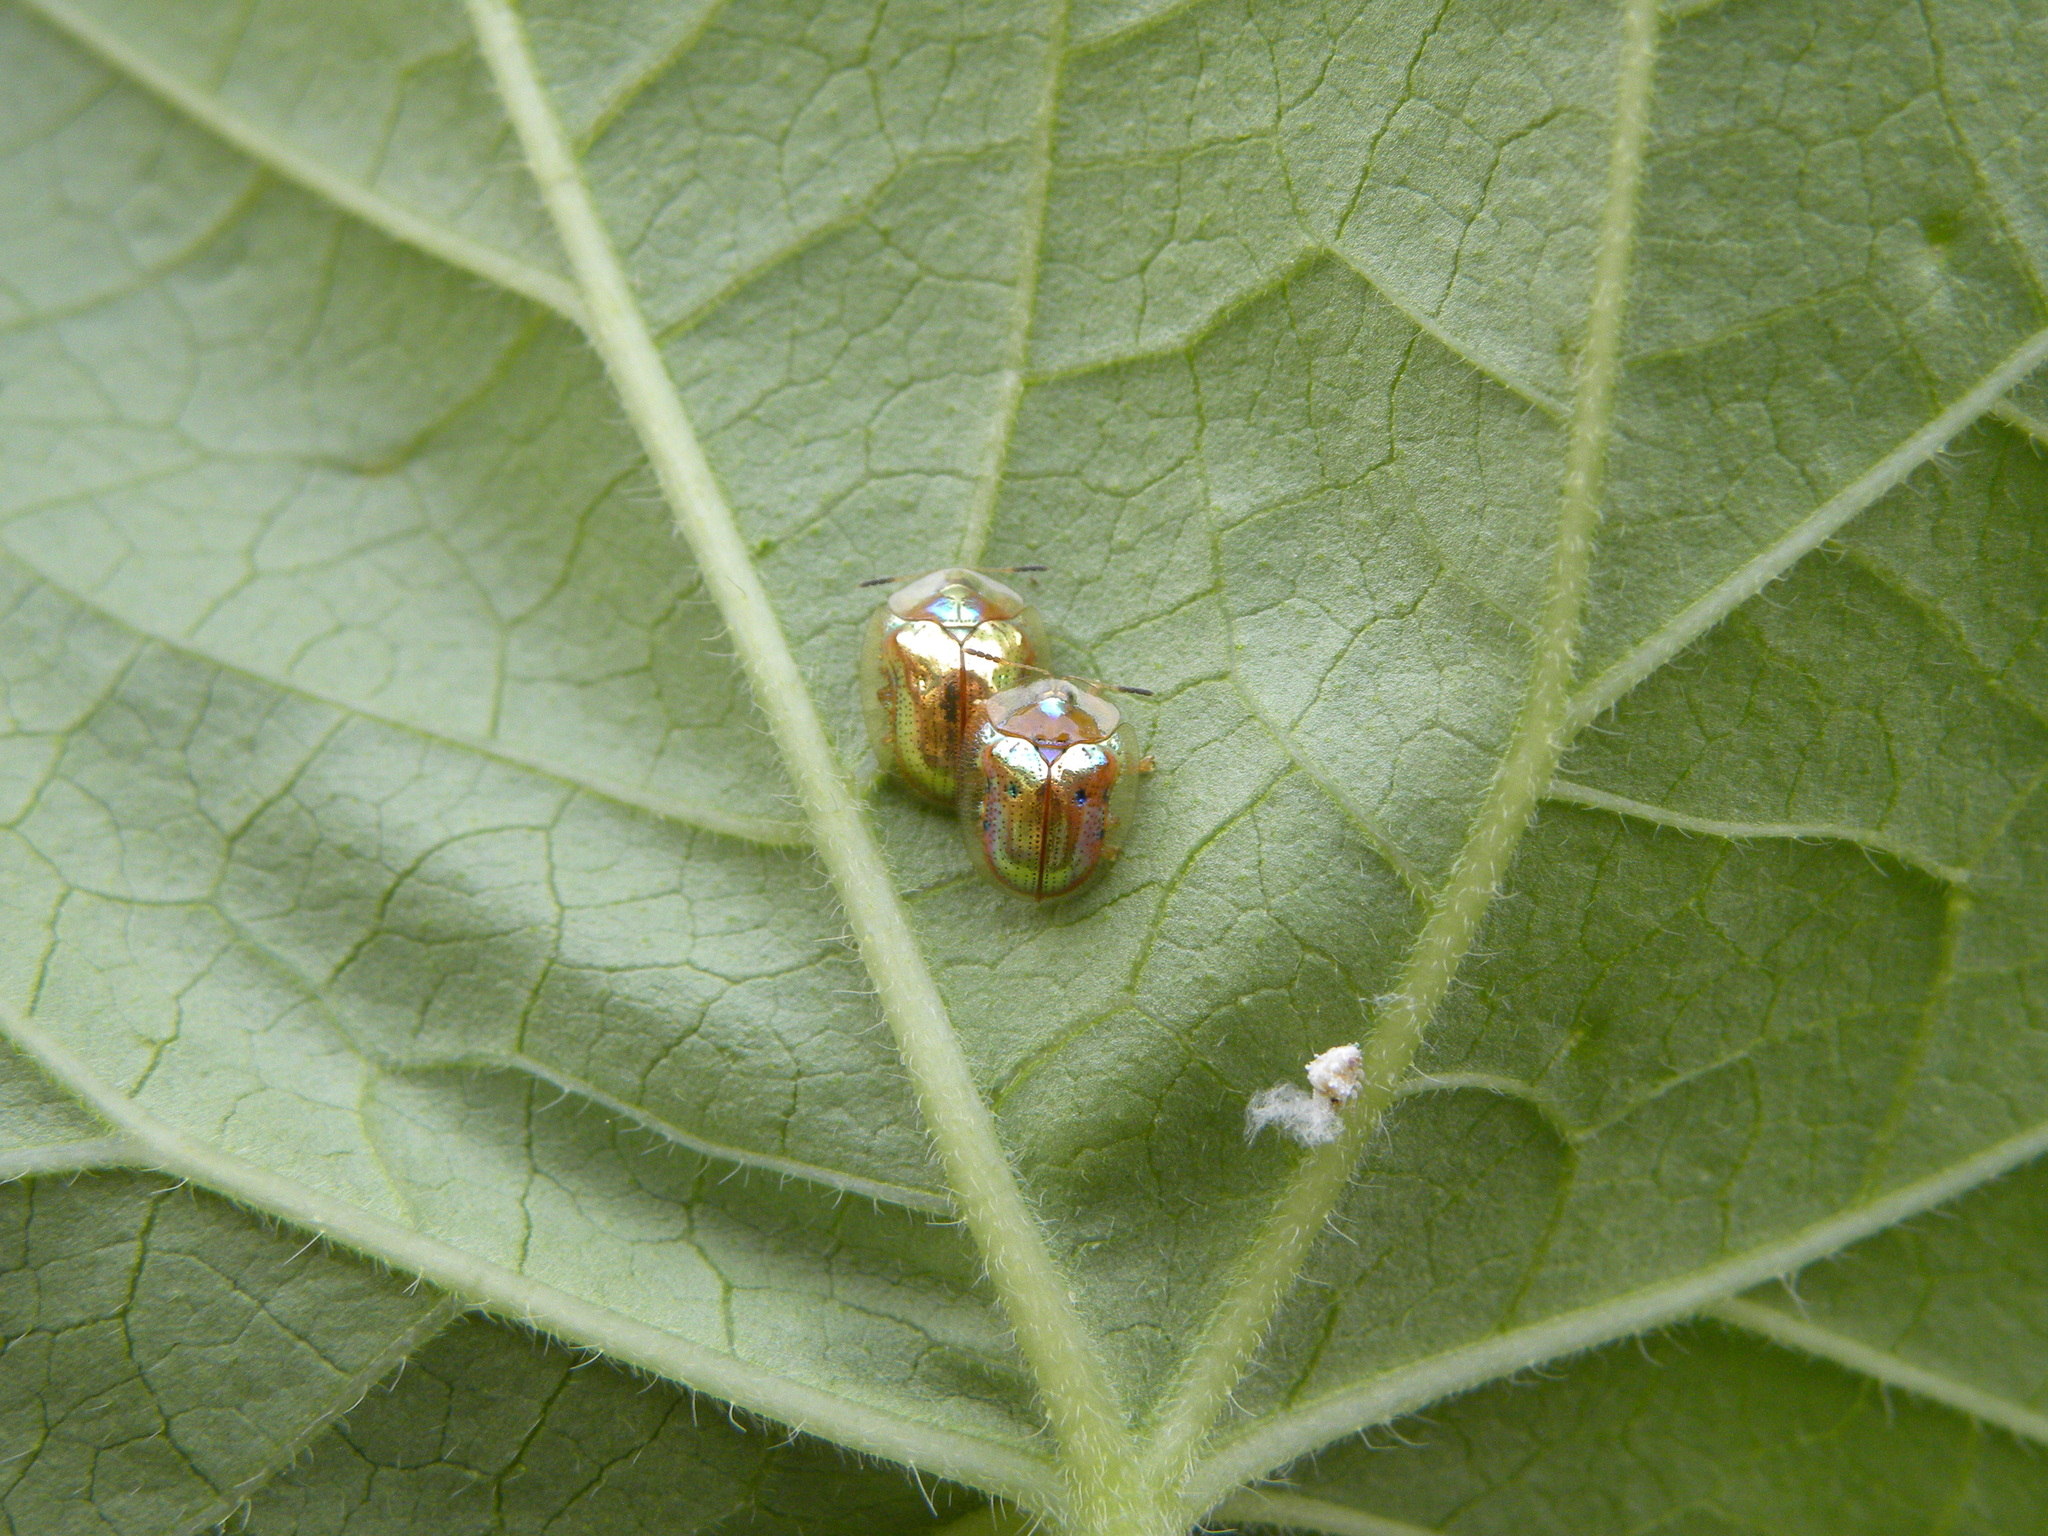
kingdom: Animalia
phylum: Arthropoda
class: Insecta
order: Coleoptera
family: Chrysomelidae
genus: Charidotella
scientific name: Charidotella sexpunctata
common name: Golden tortoise beetle
